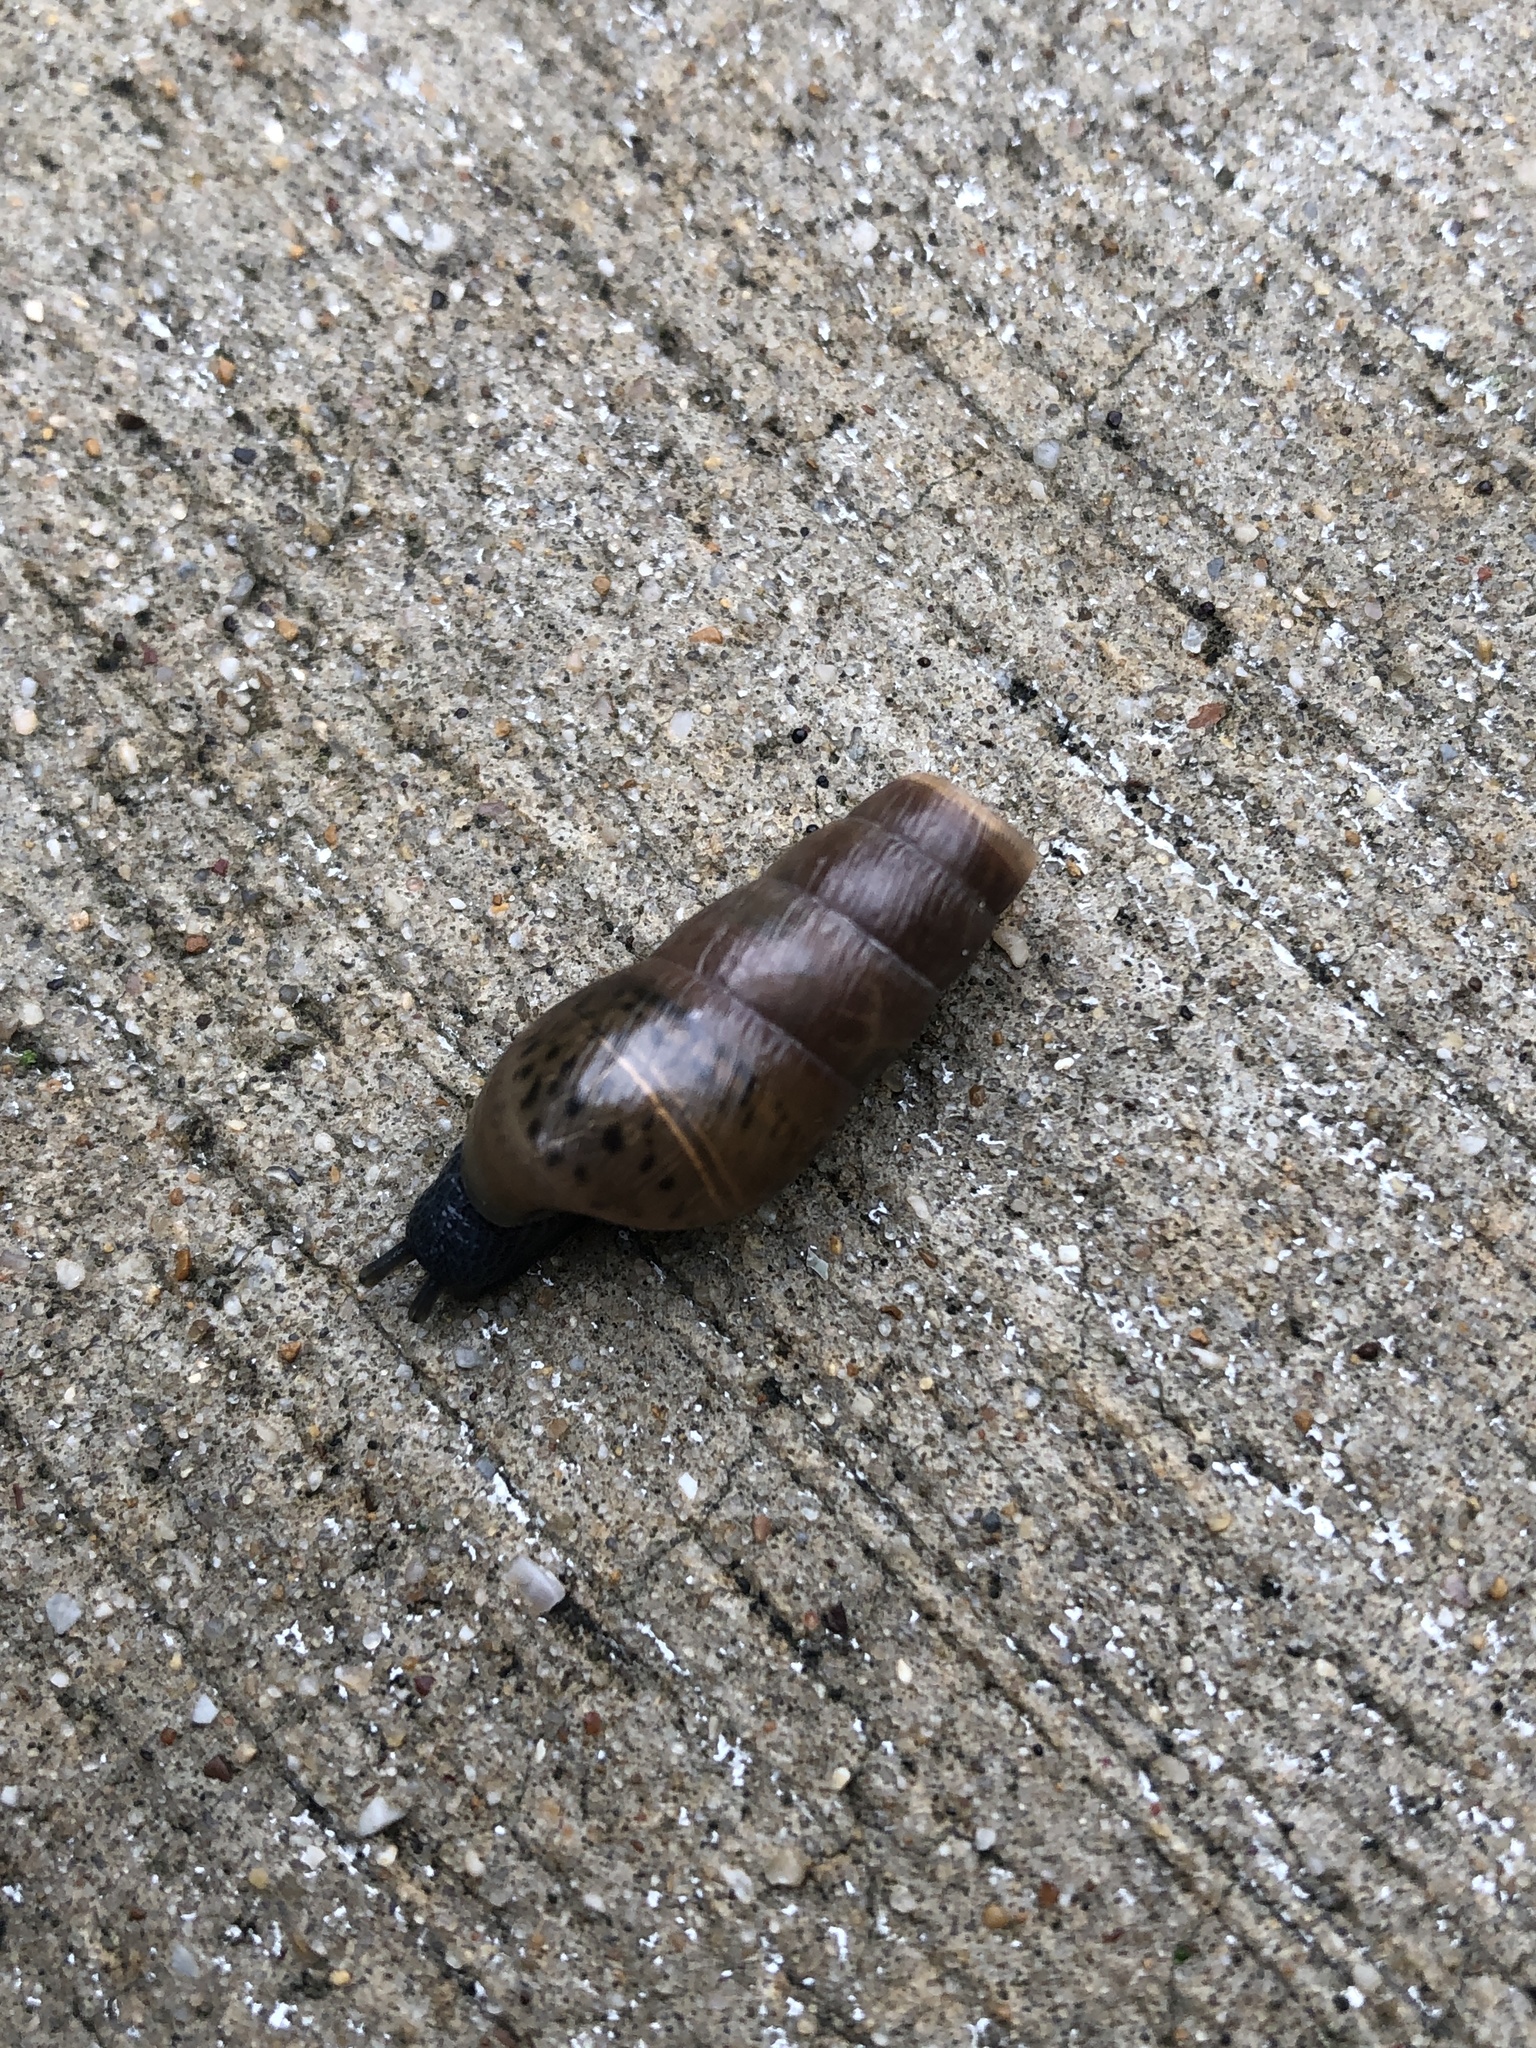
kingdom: Animalia
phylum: Mollusca
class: Gastropoda
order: Stylommatophora
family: Achatinidae
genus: Rumina
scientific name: Rumina decollata
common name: Decollate snail
